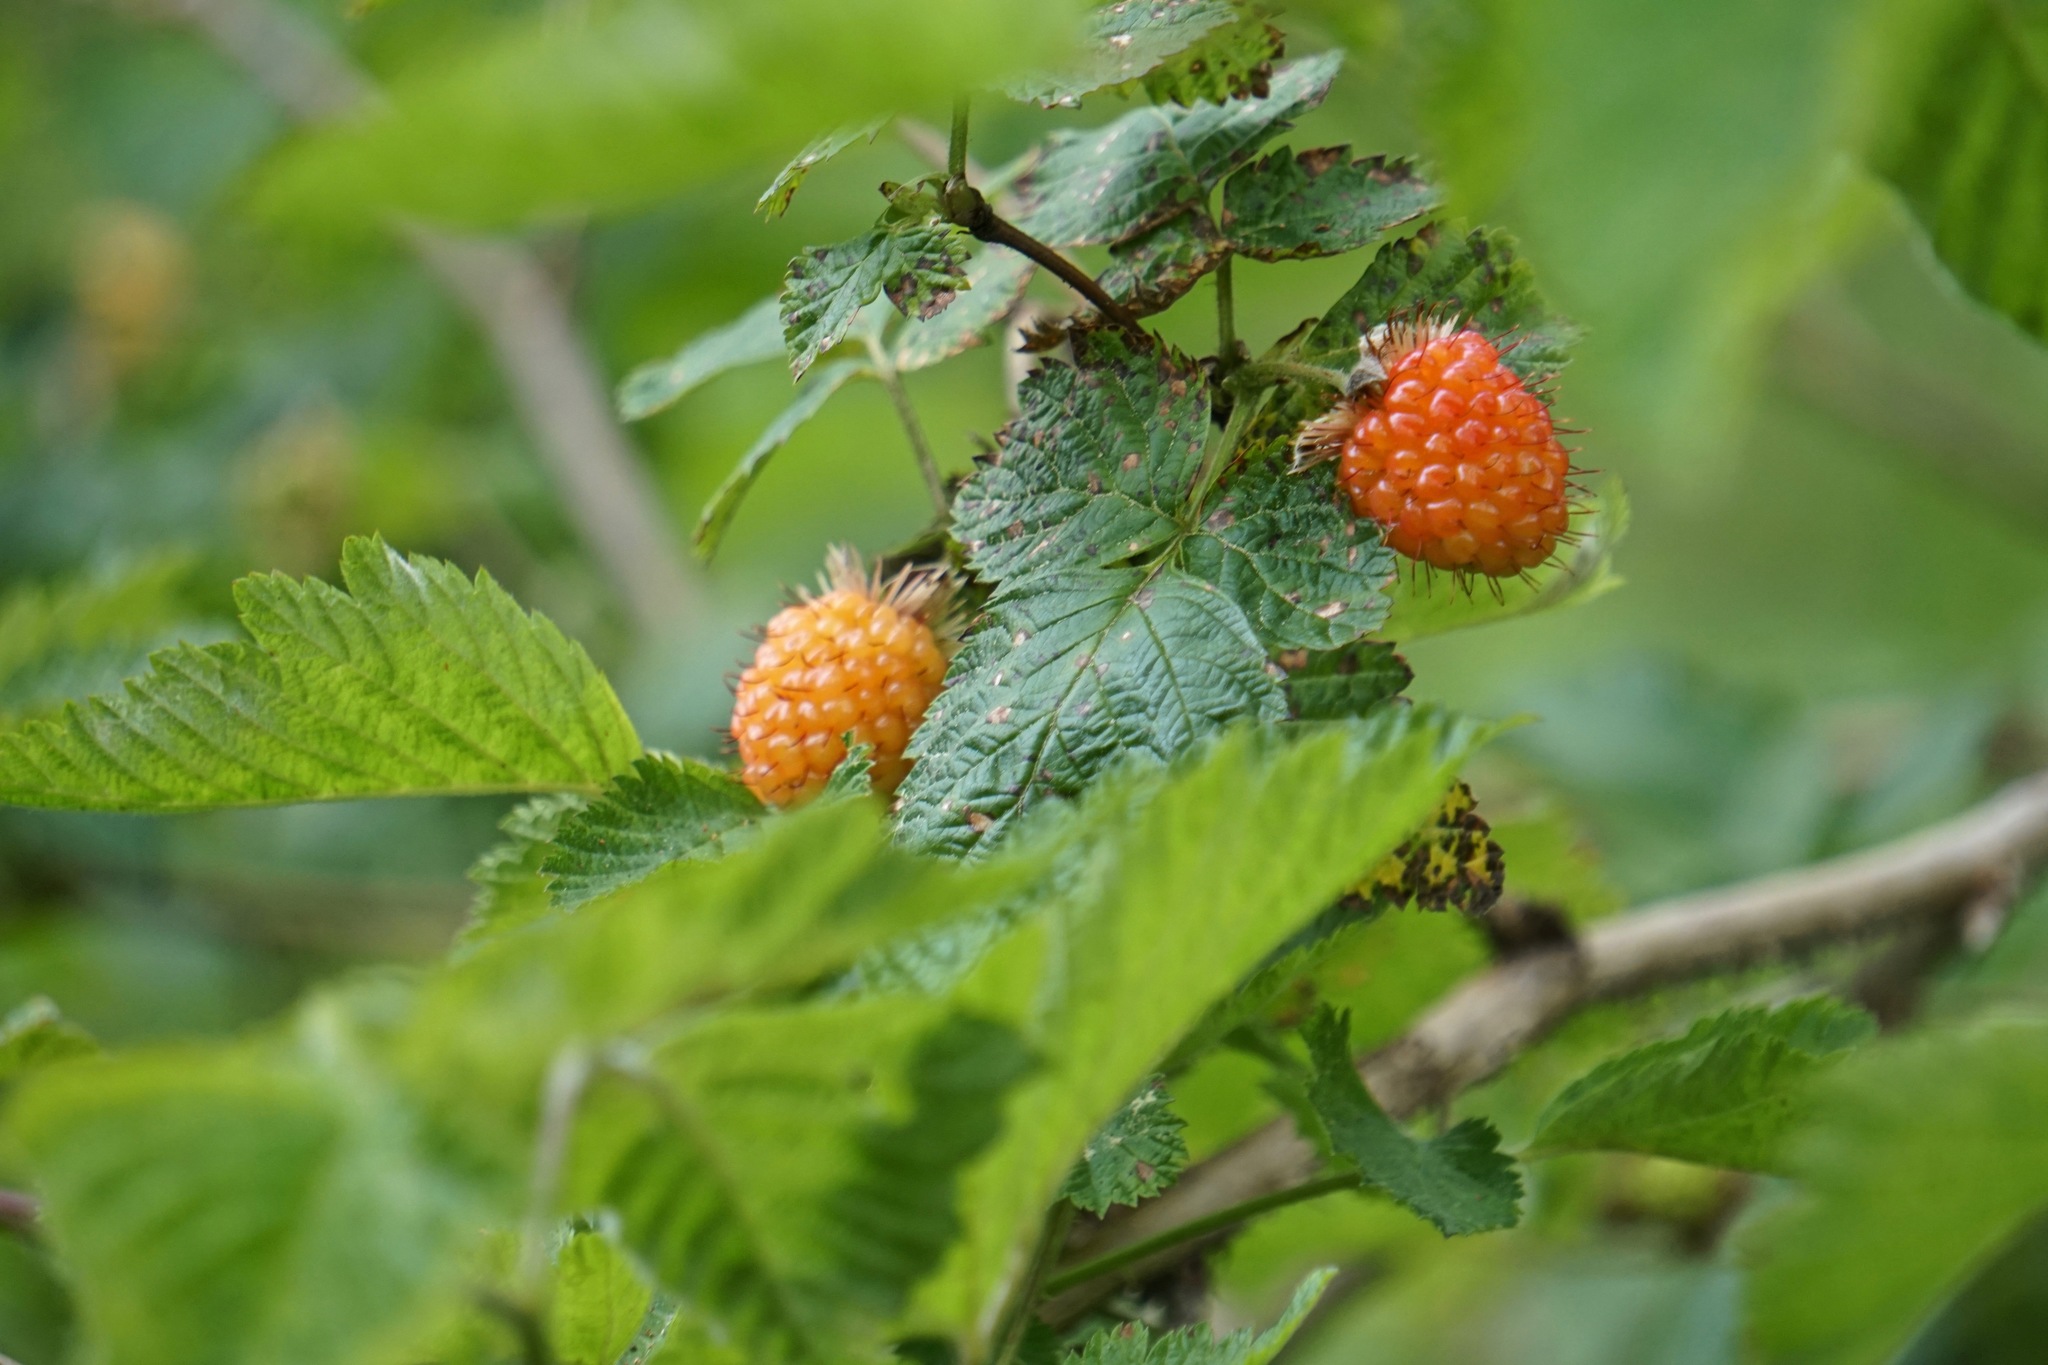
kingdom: Plantae
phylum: Tracheophyta
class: Magnoliopsida
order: Rosales
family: Rosaceae
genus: Rubus
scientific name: Rubus spectabilis
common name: Salmonberry
